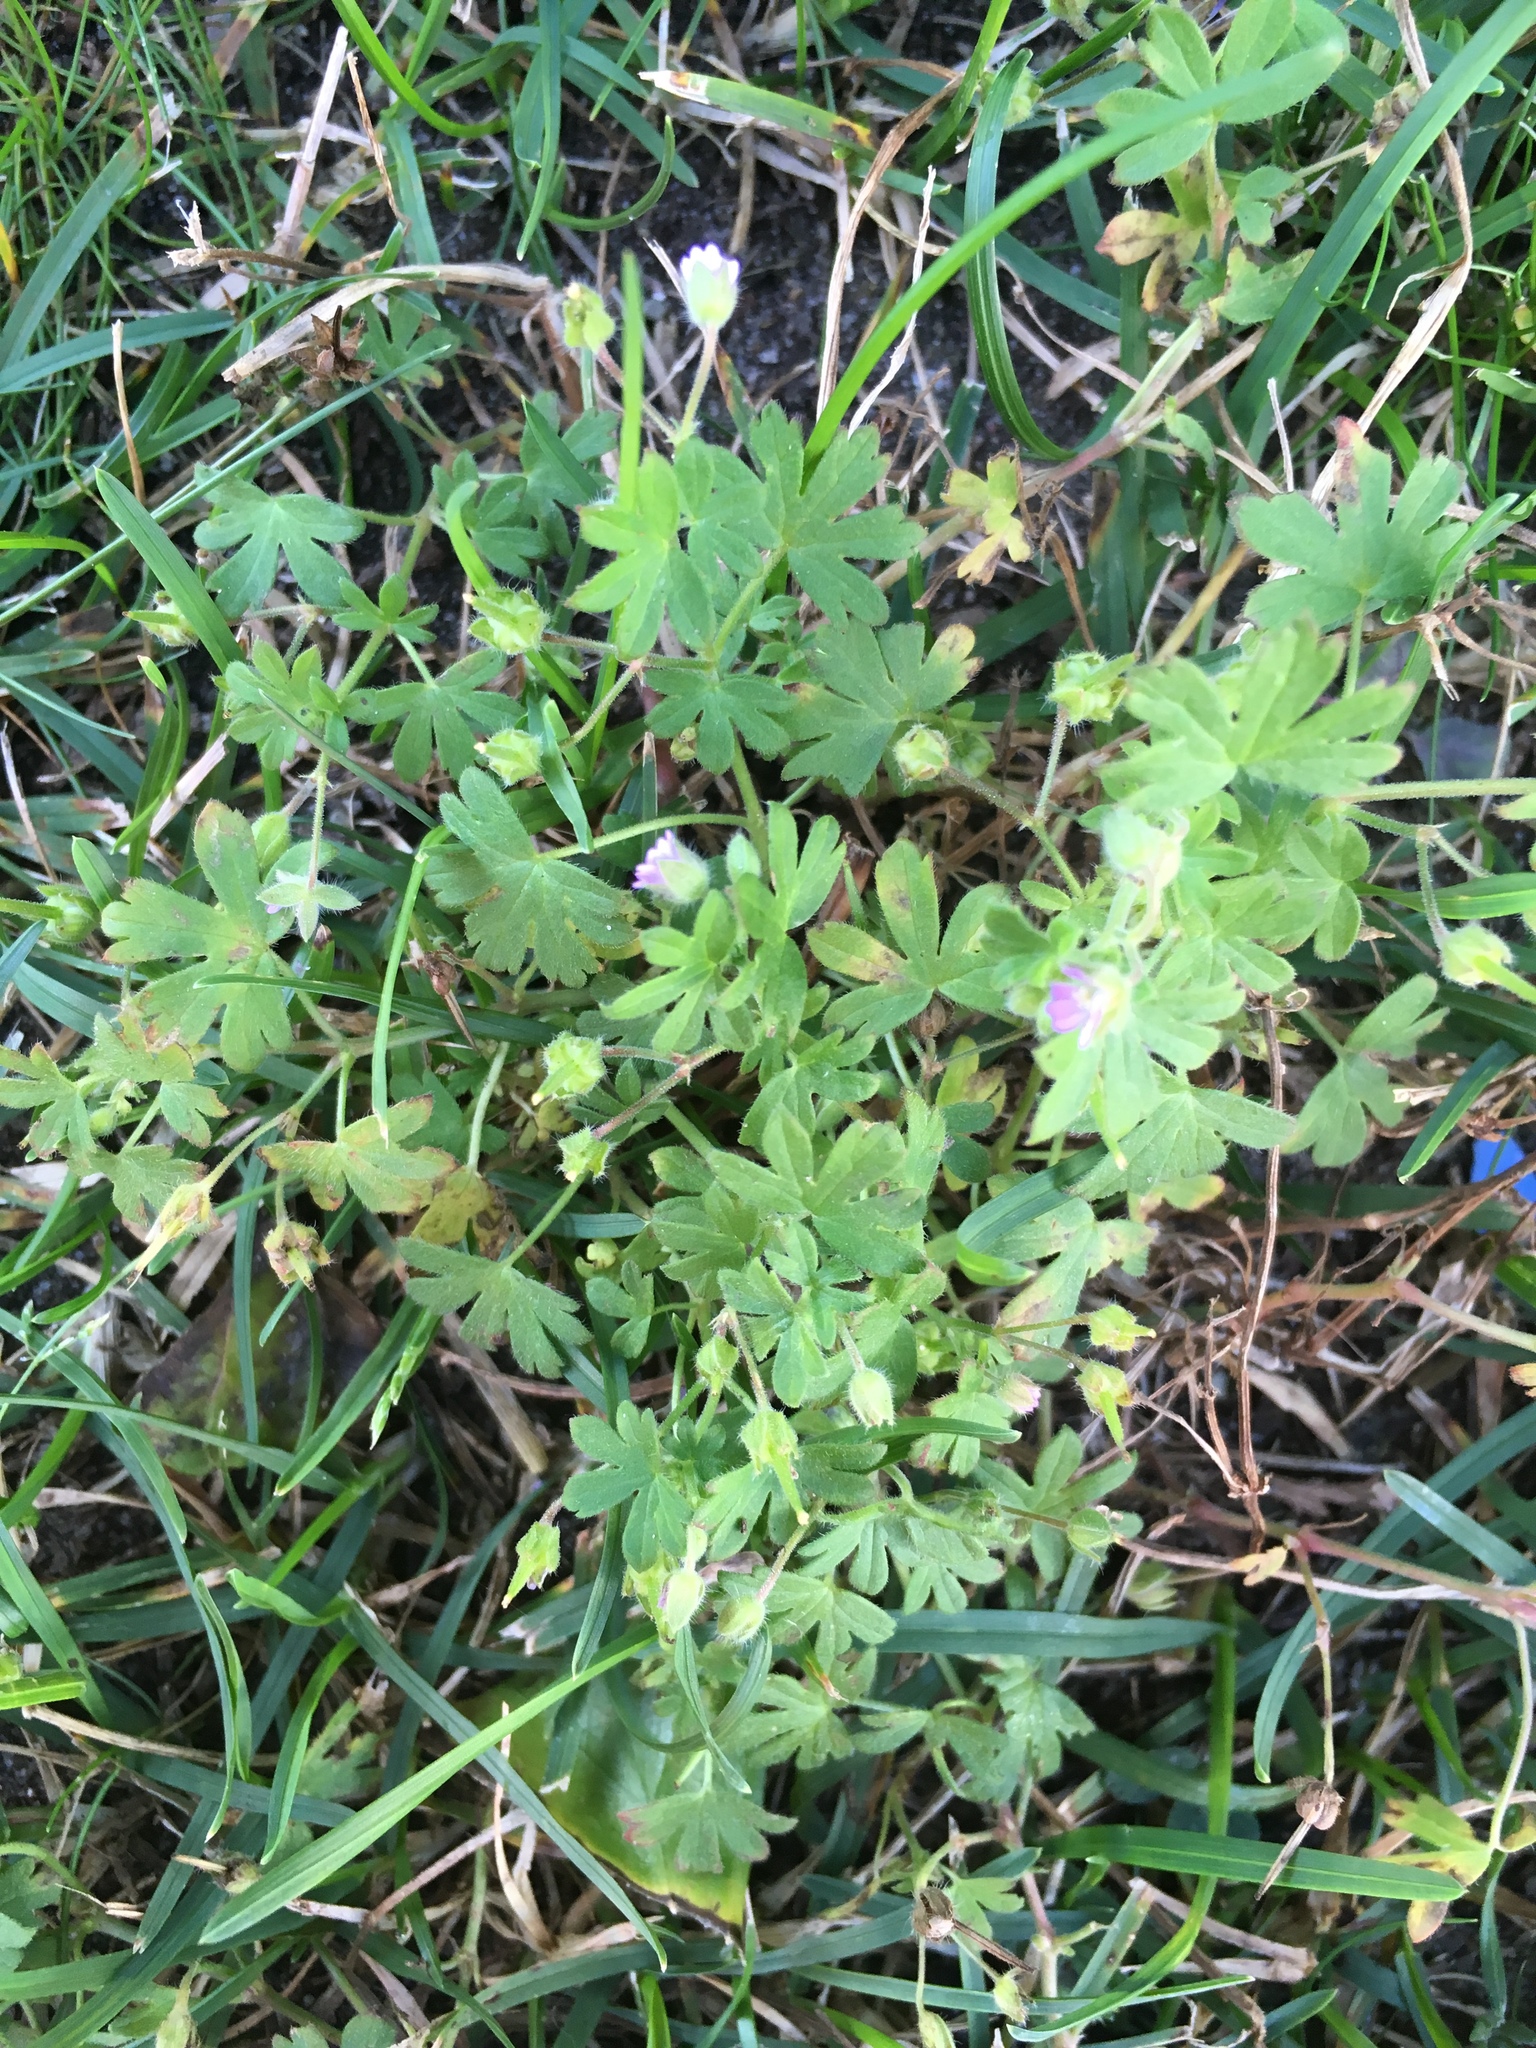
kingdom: Plantae
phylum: Tracheophyta
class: Magnoliopsida
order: Geraniales
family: Geraniaceae
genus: Geranium
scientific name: Geranium pusillum
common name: Small geranium
